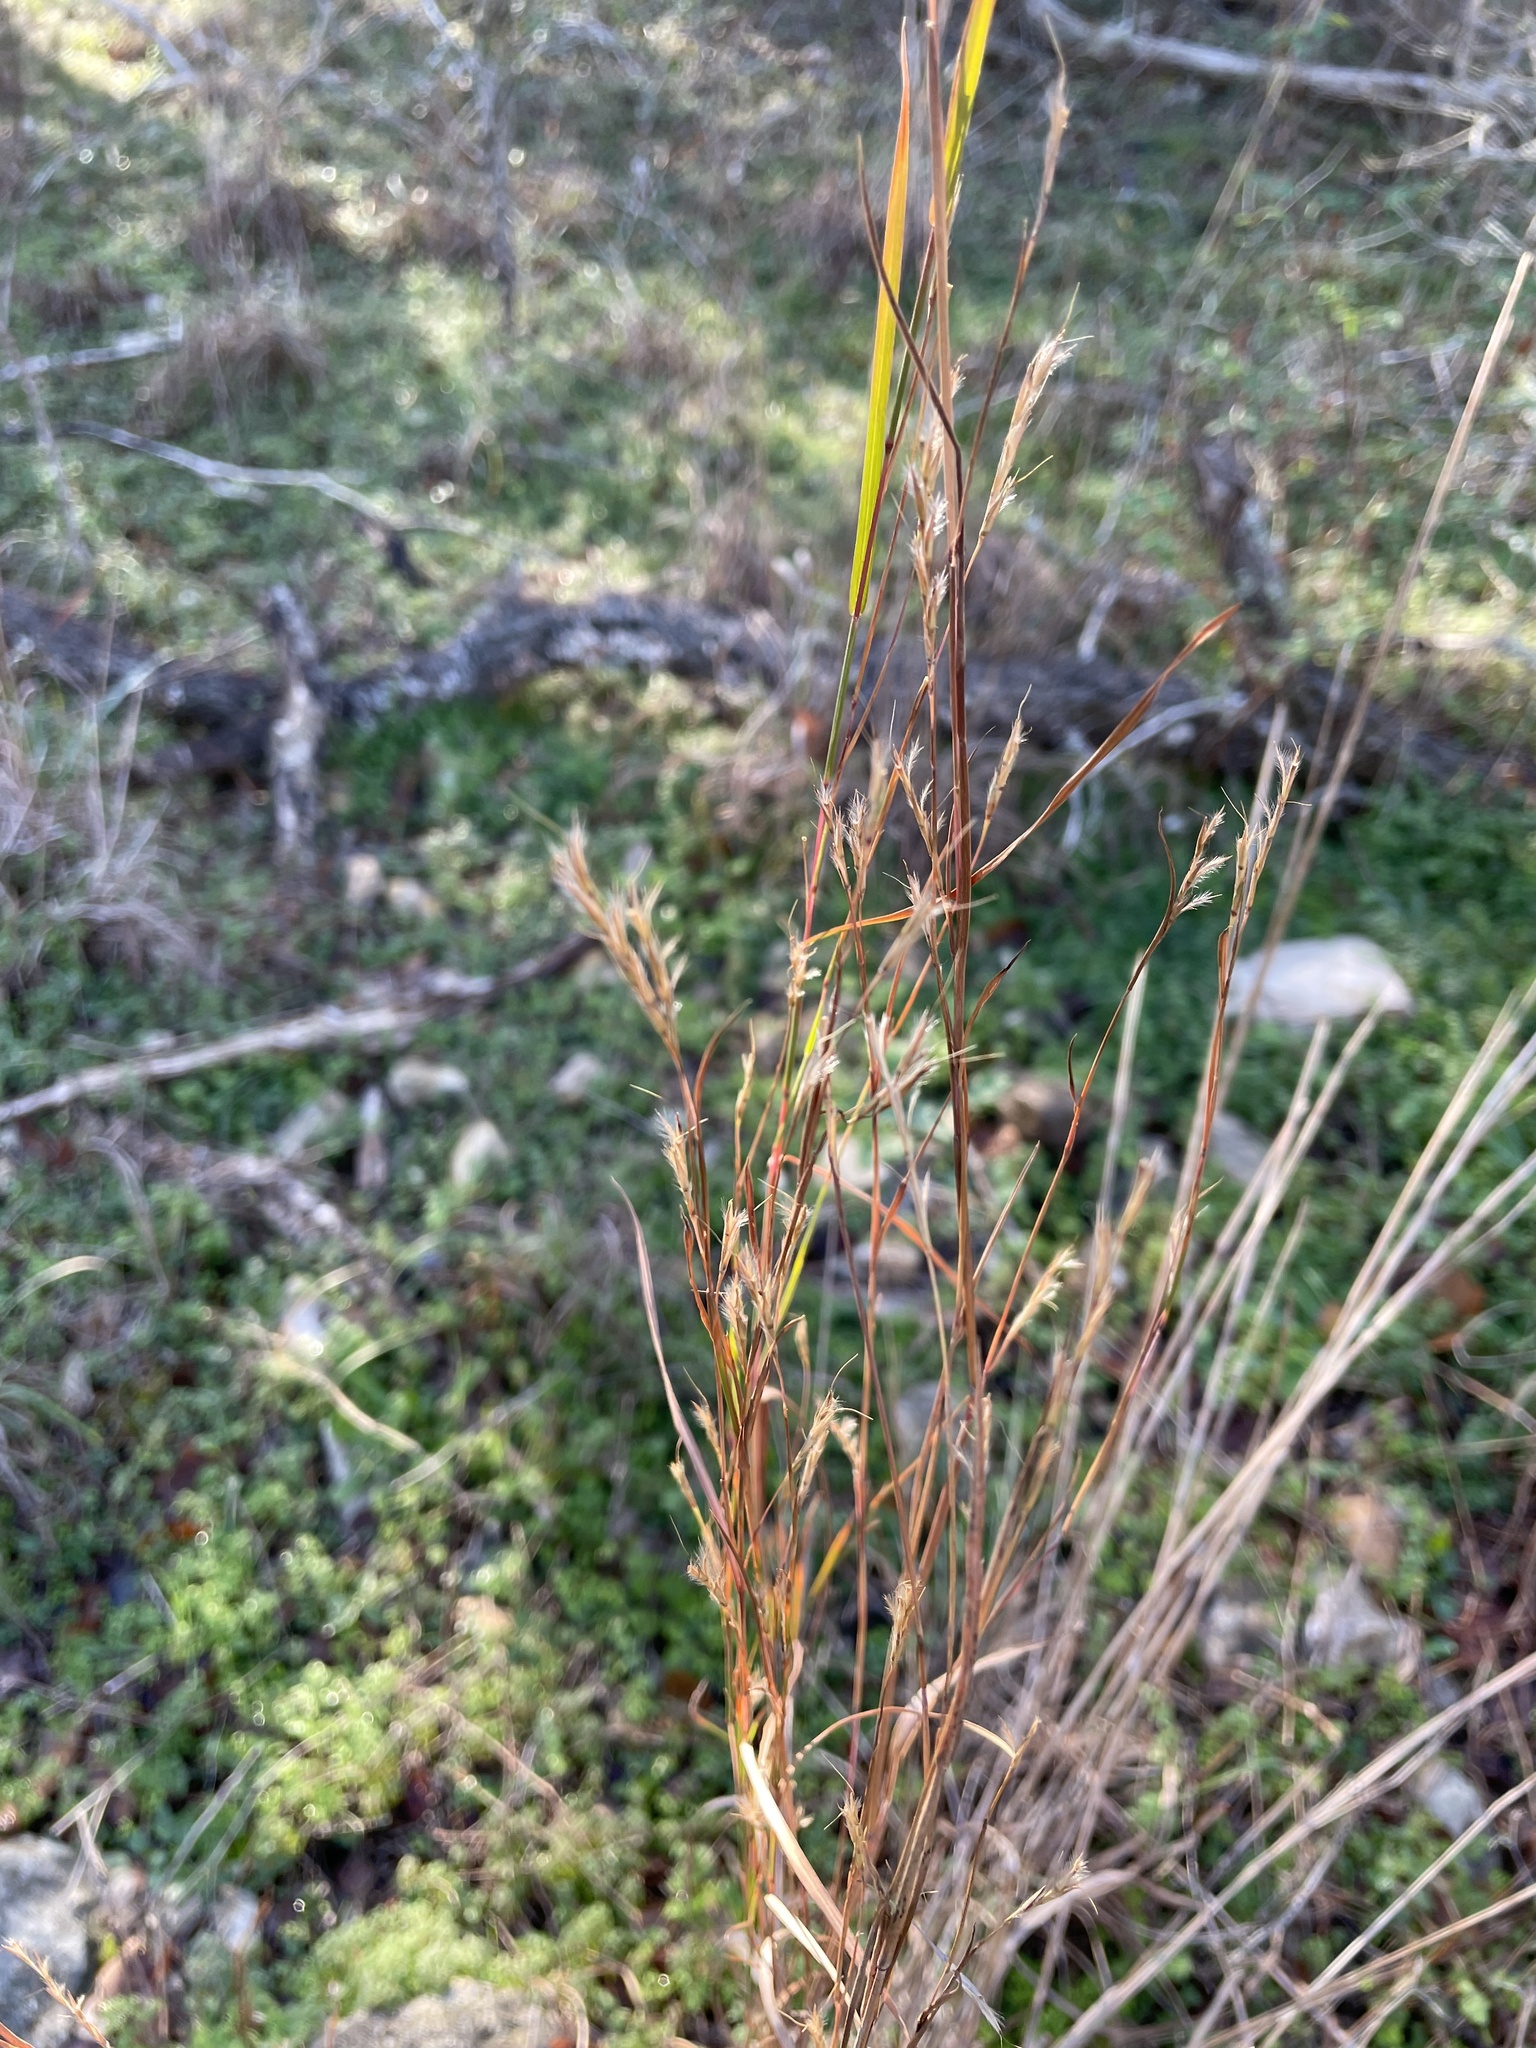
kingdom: Plantae
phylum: Tracheophyta
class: Liliopsida
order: Poales
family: Poaceae
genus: Schizachyrium
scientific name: Schizachyrium scoparium
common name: Little bluestem
